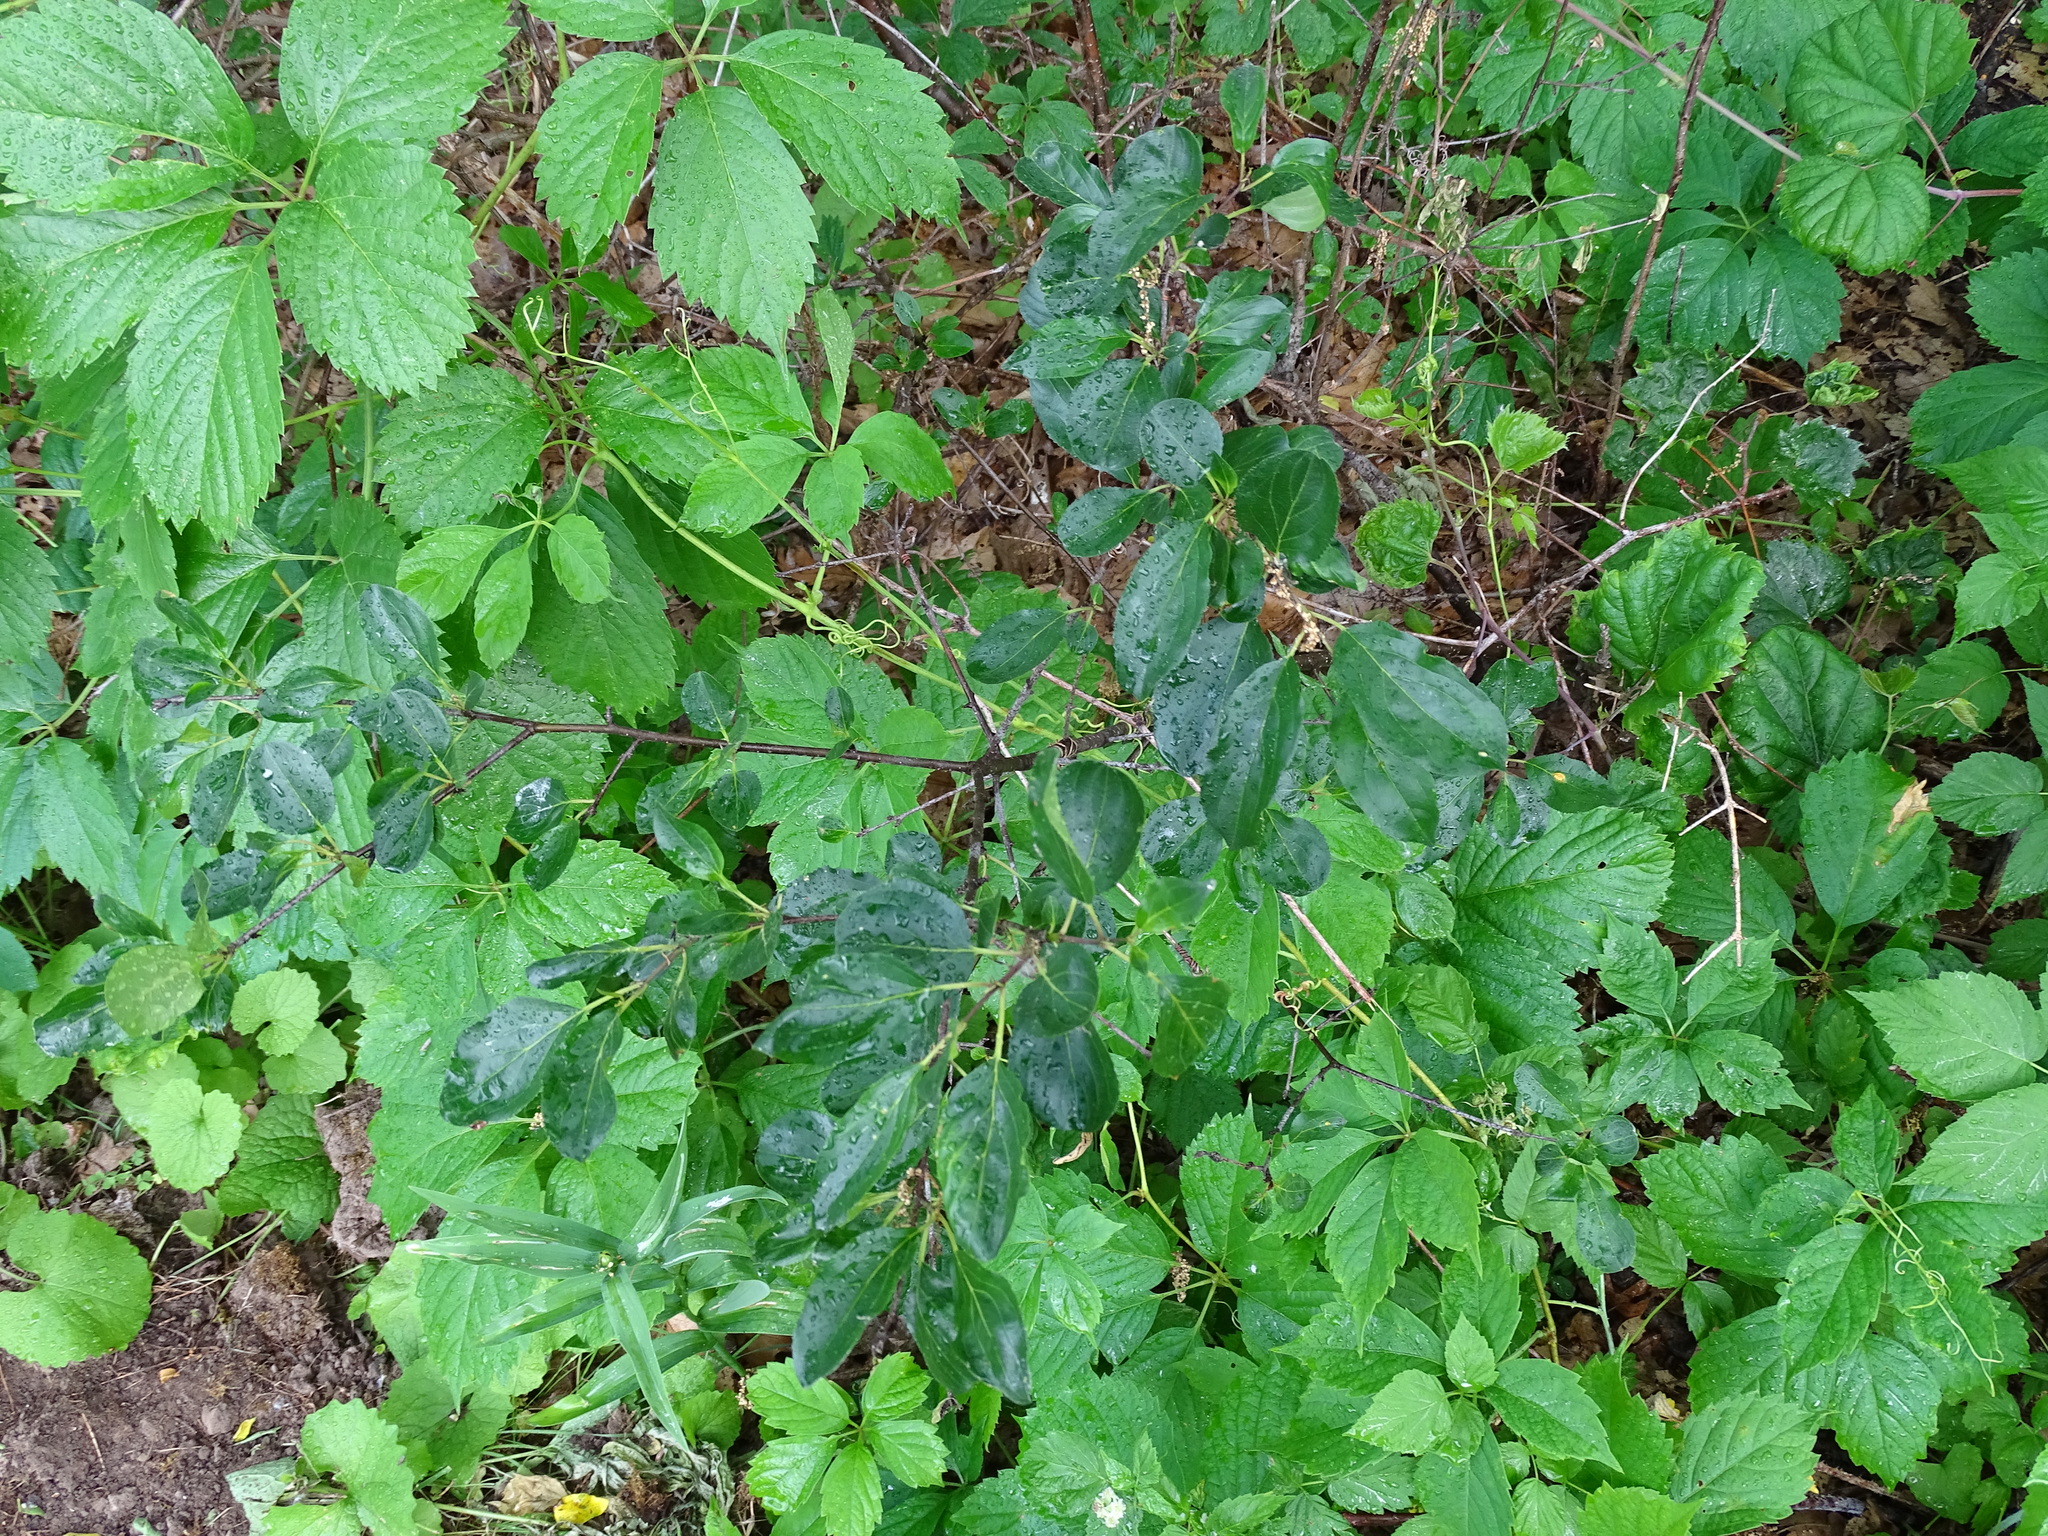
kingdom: Plantae
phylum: Tracheophyta
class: Magnoliopsida
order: Rosales
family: Rhamnaceae
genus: Rhamnus
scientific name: Rhamnus cathartica
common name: Common buckthorn
